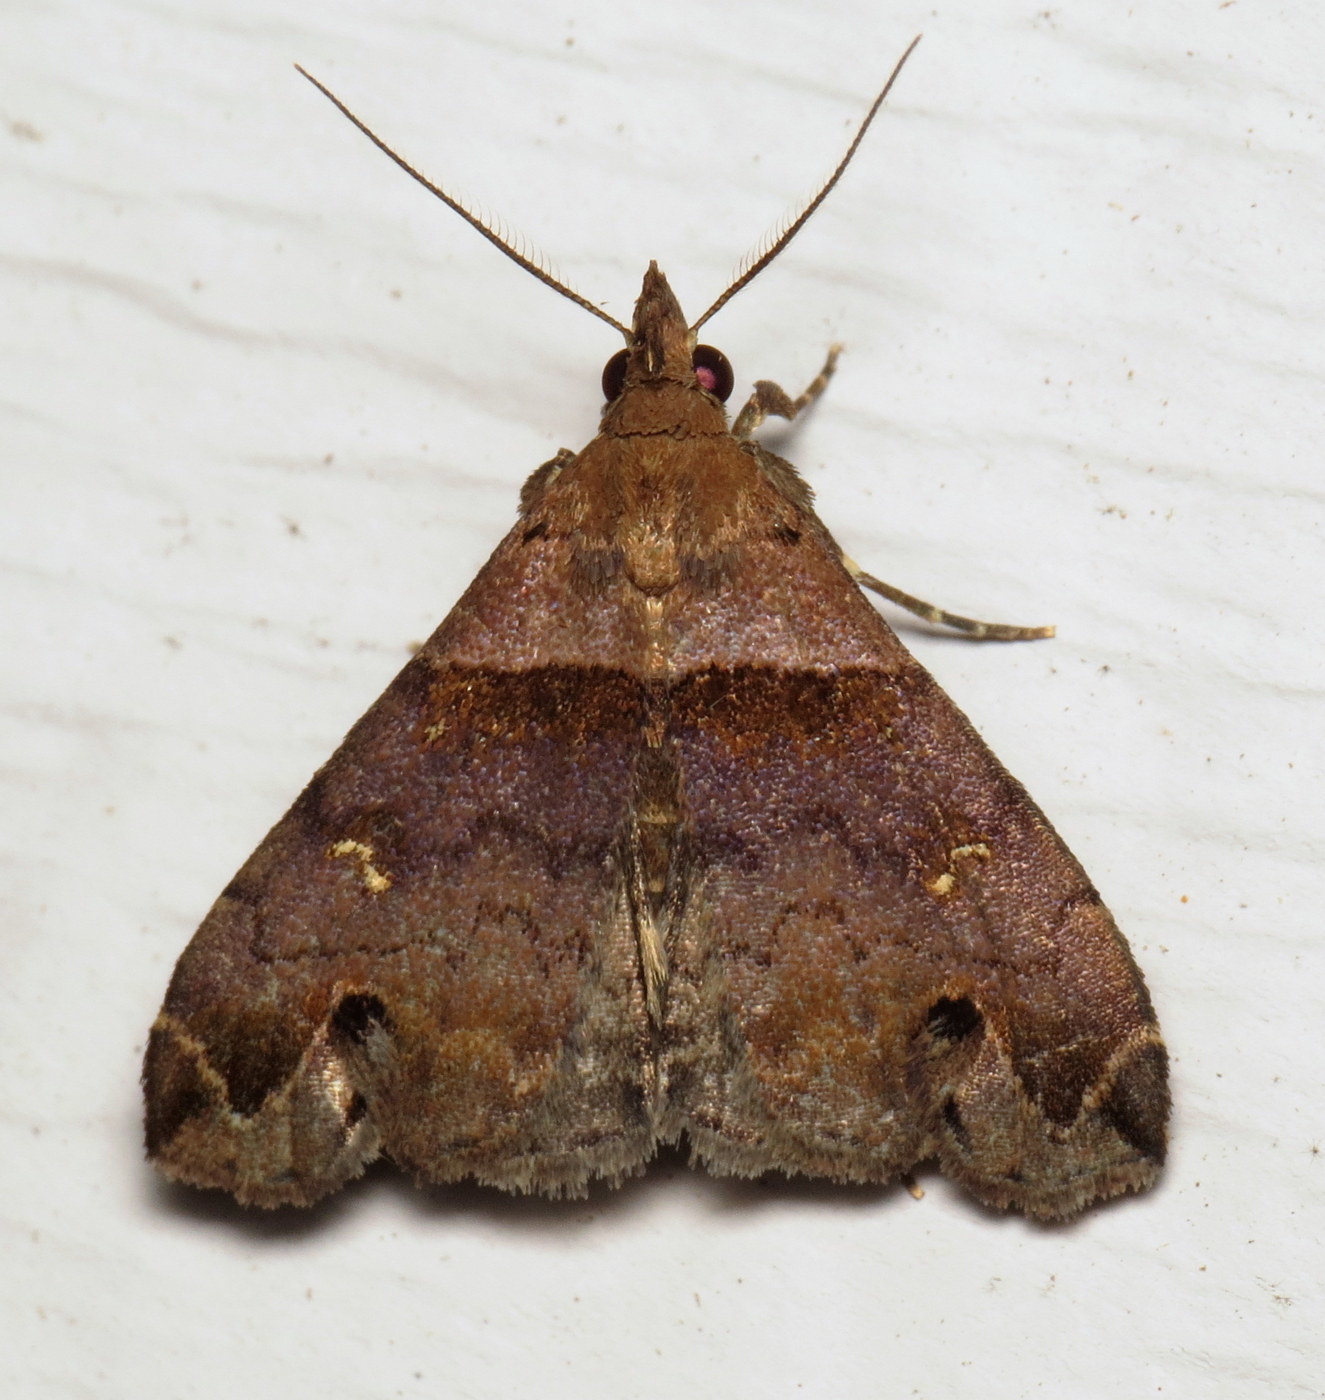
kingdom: Animalia
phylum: Arthropoda
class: Insecta
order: Lepidoptera
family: Erebidae
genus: Lascoria
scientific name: Lascoria ambigualis
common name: Ambiguous moth
